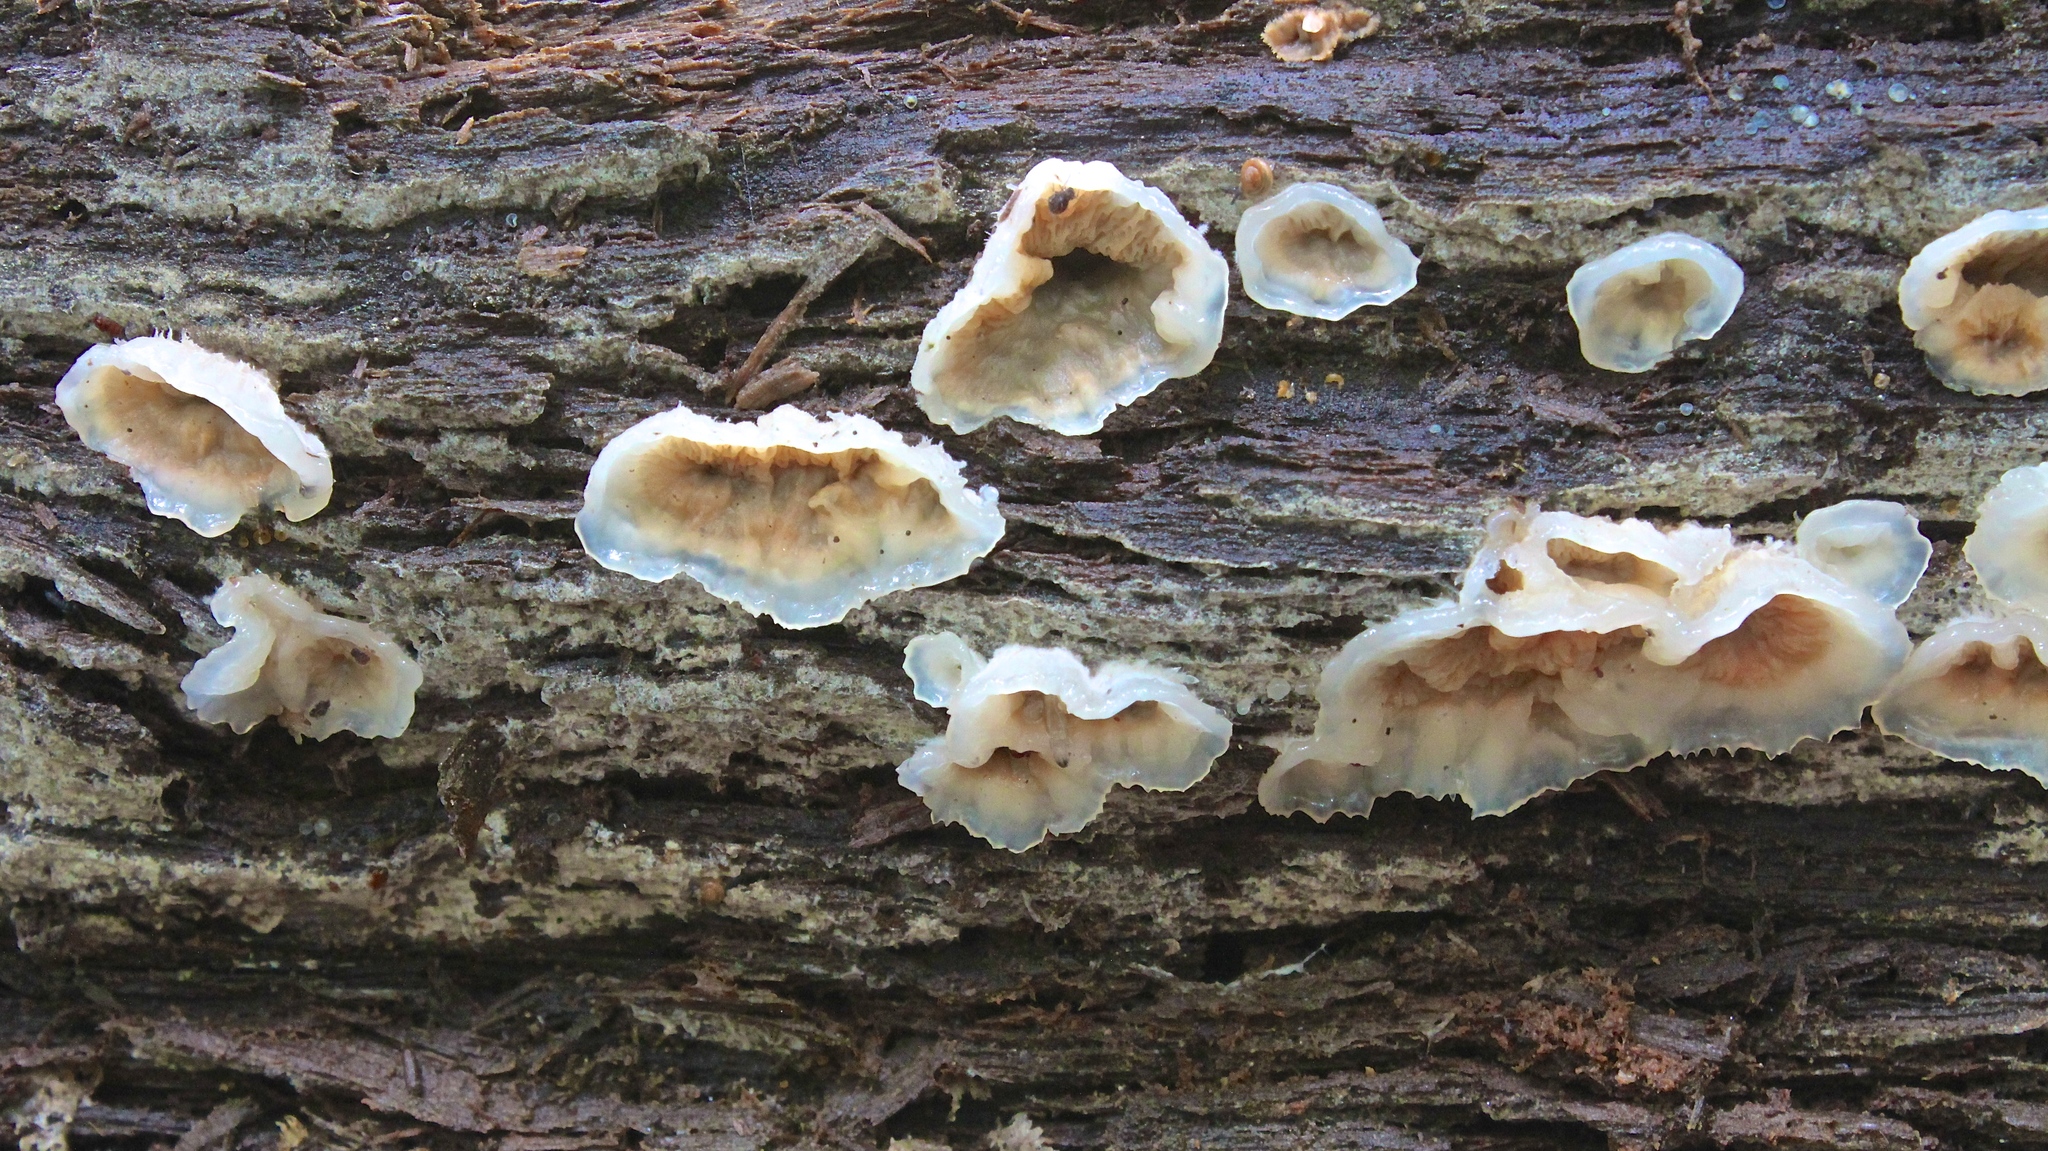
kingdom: Fungi
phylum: Basidiomycota
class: Agaricomycetes
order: Polyporales
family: Meruliaceae
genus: Phlebia
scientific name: Phlebia tremellosa
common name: Jelly rot
